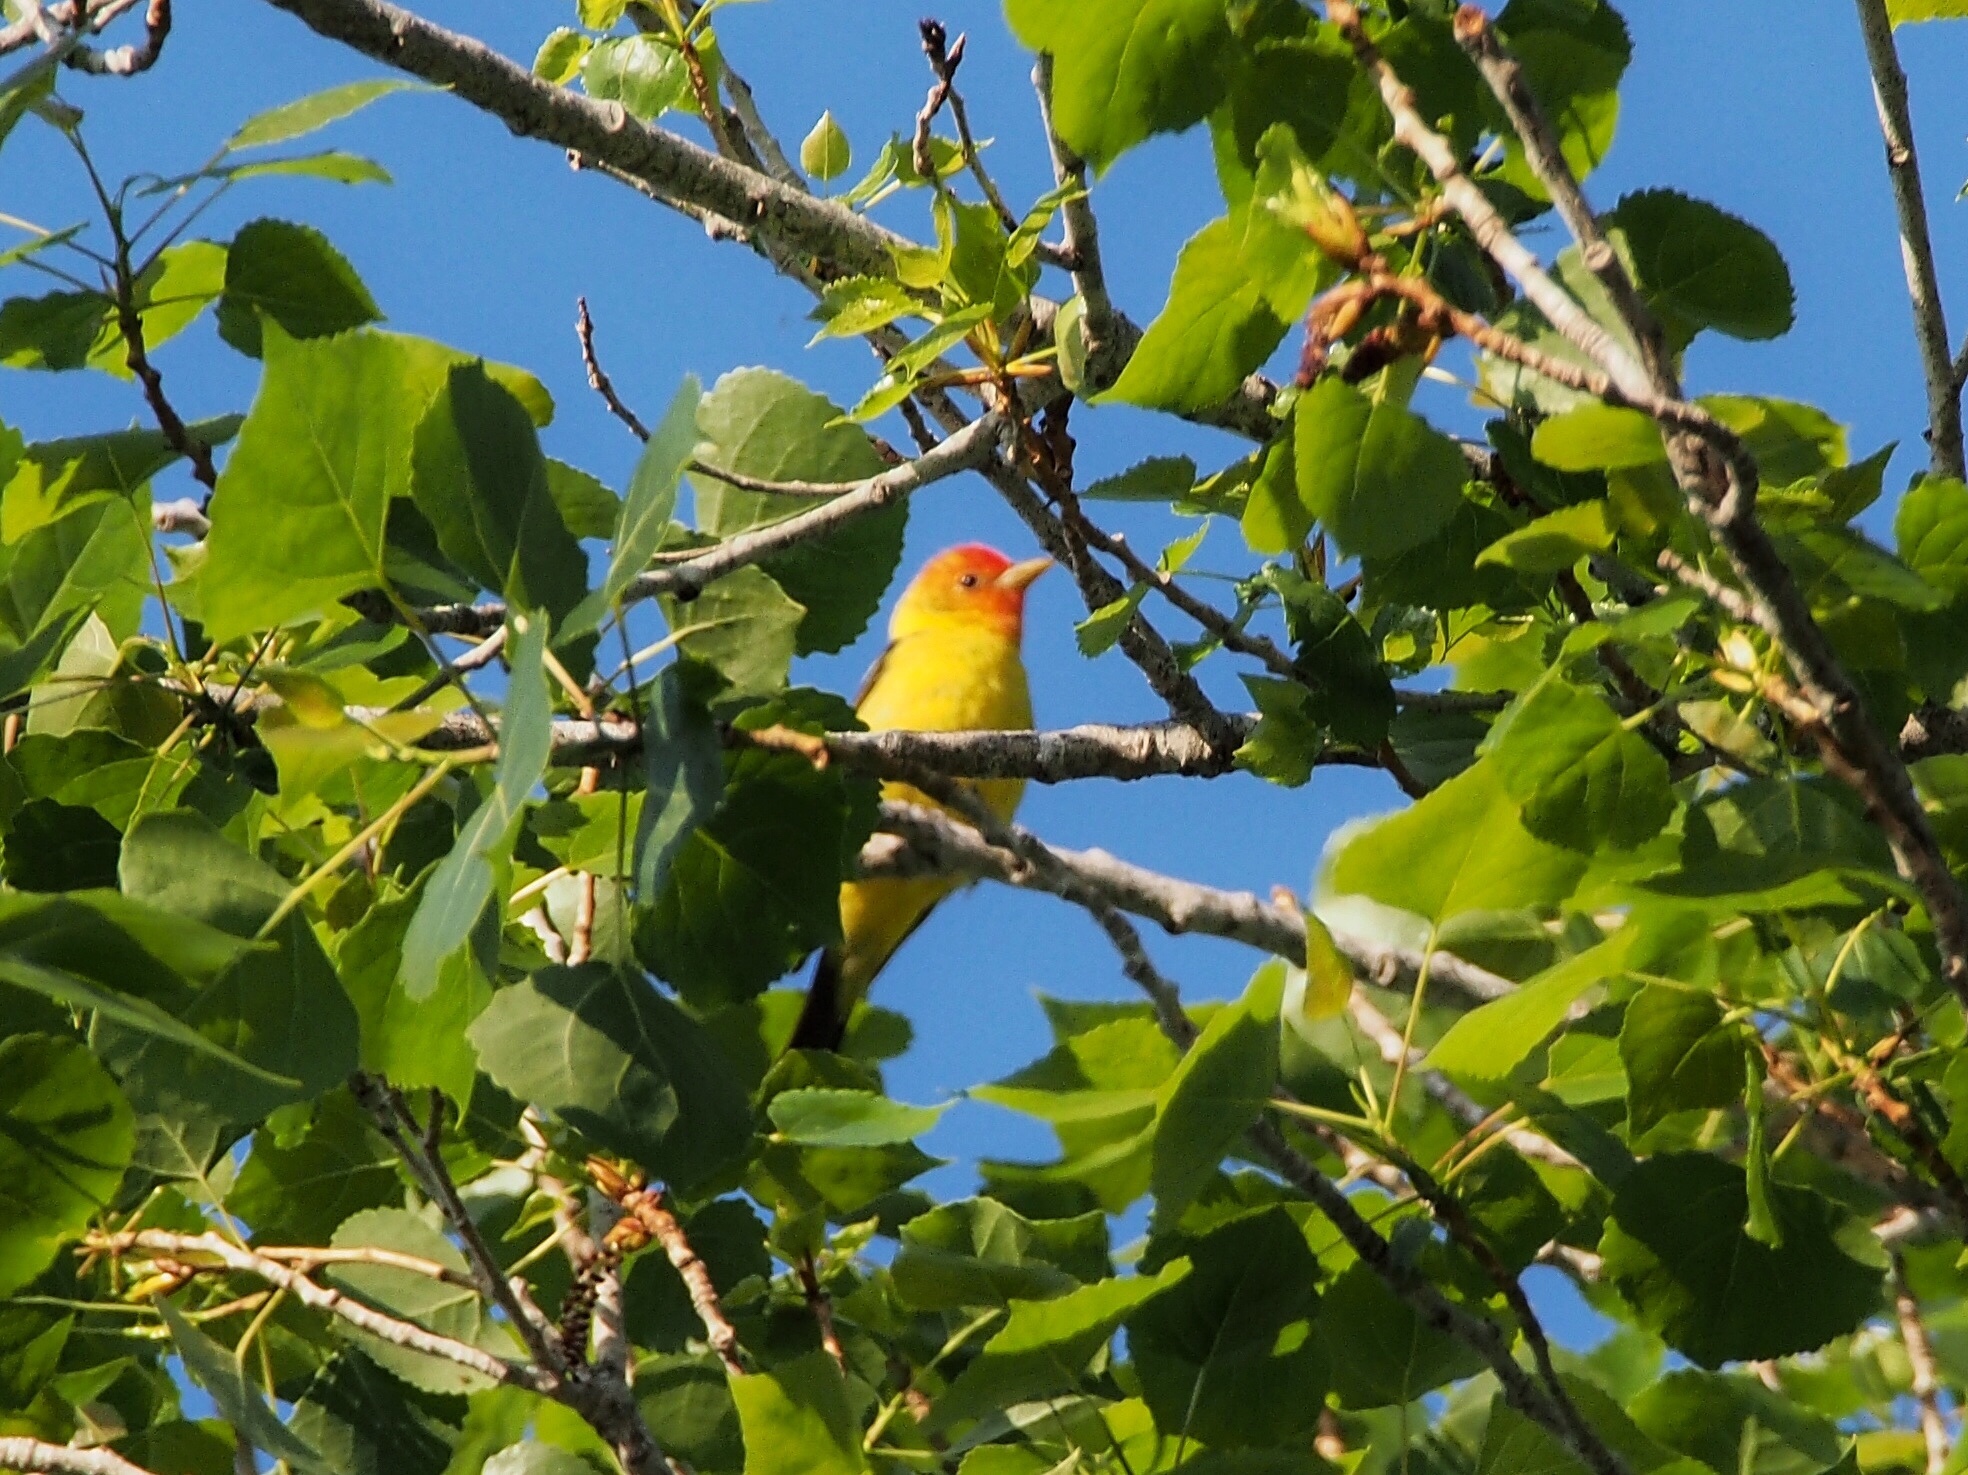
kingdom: Animalia
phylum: Chordata
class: Aves
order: Passeriformes
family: Cardinalidae
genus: Piranga
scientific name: Piranga ludoviciana
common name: Western tanager
